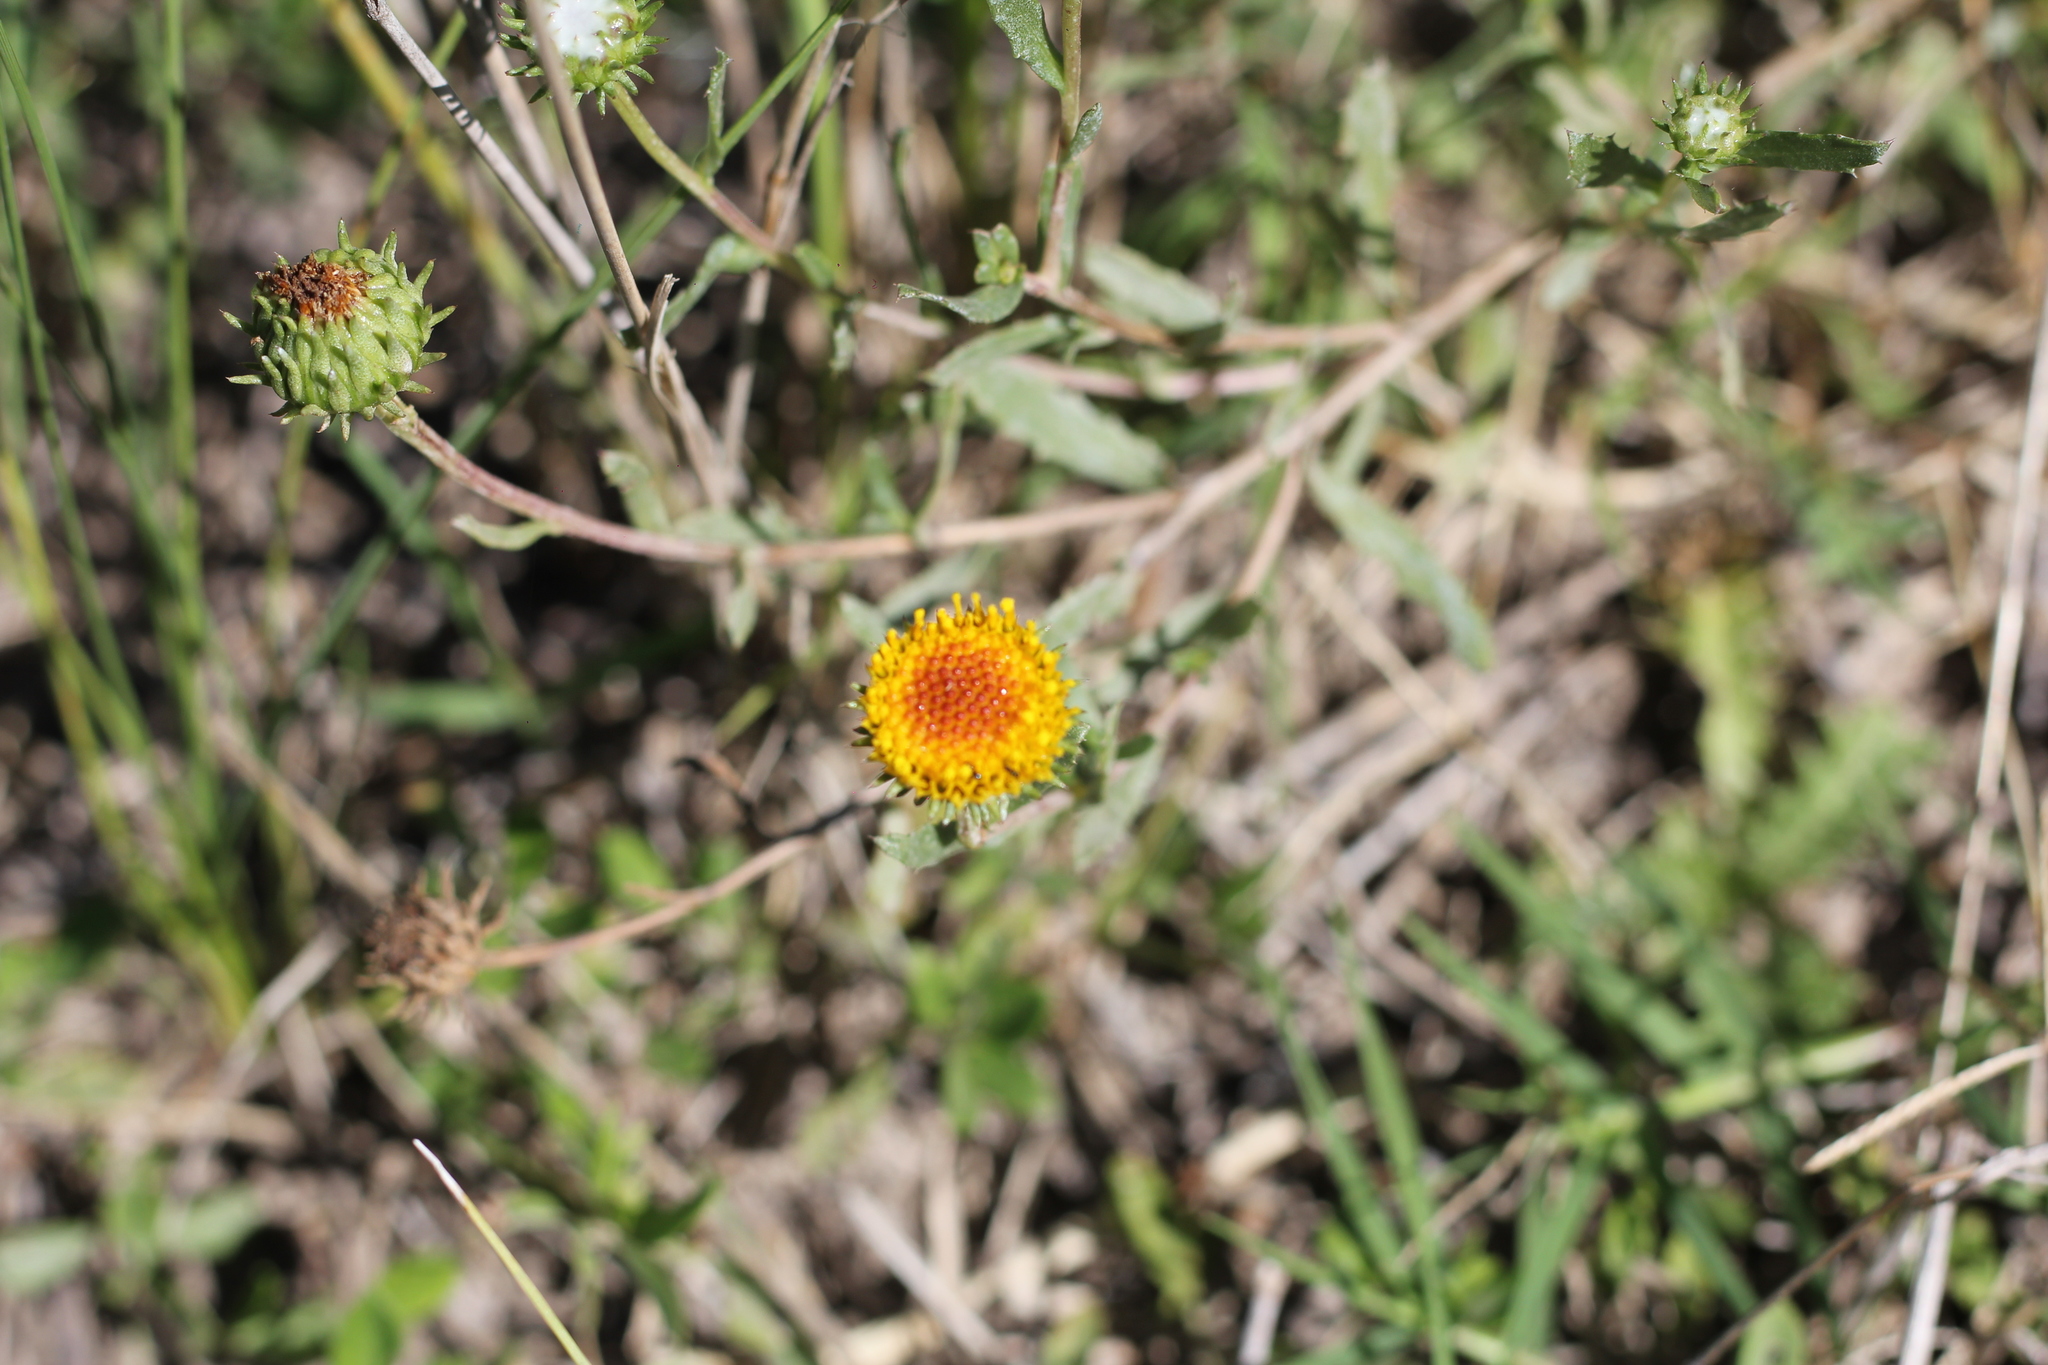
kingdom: Plantae
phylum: Tracheophyta
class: Magnoliopsida
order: Asterales
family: Asteraceae
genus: Grindelia
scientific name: Grindelia pulchella
